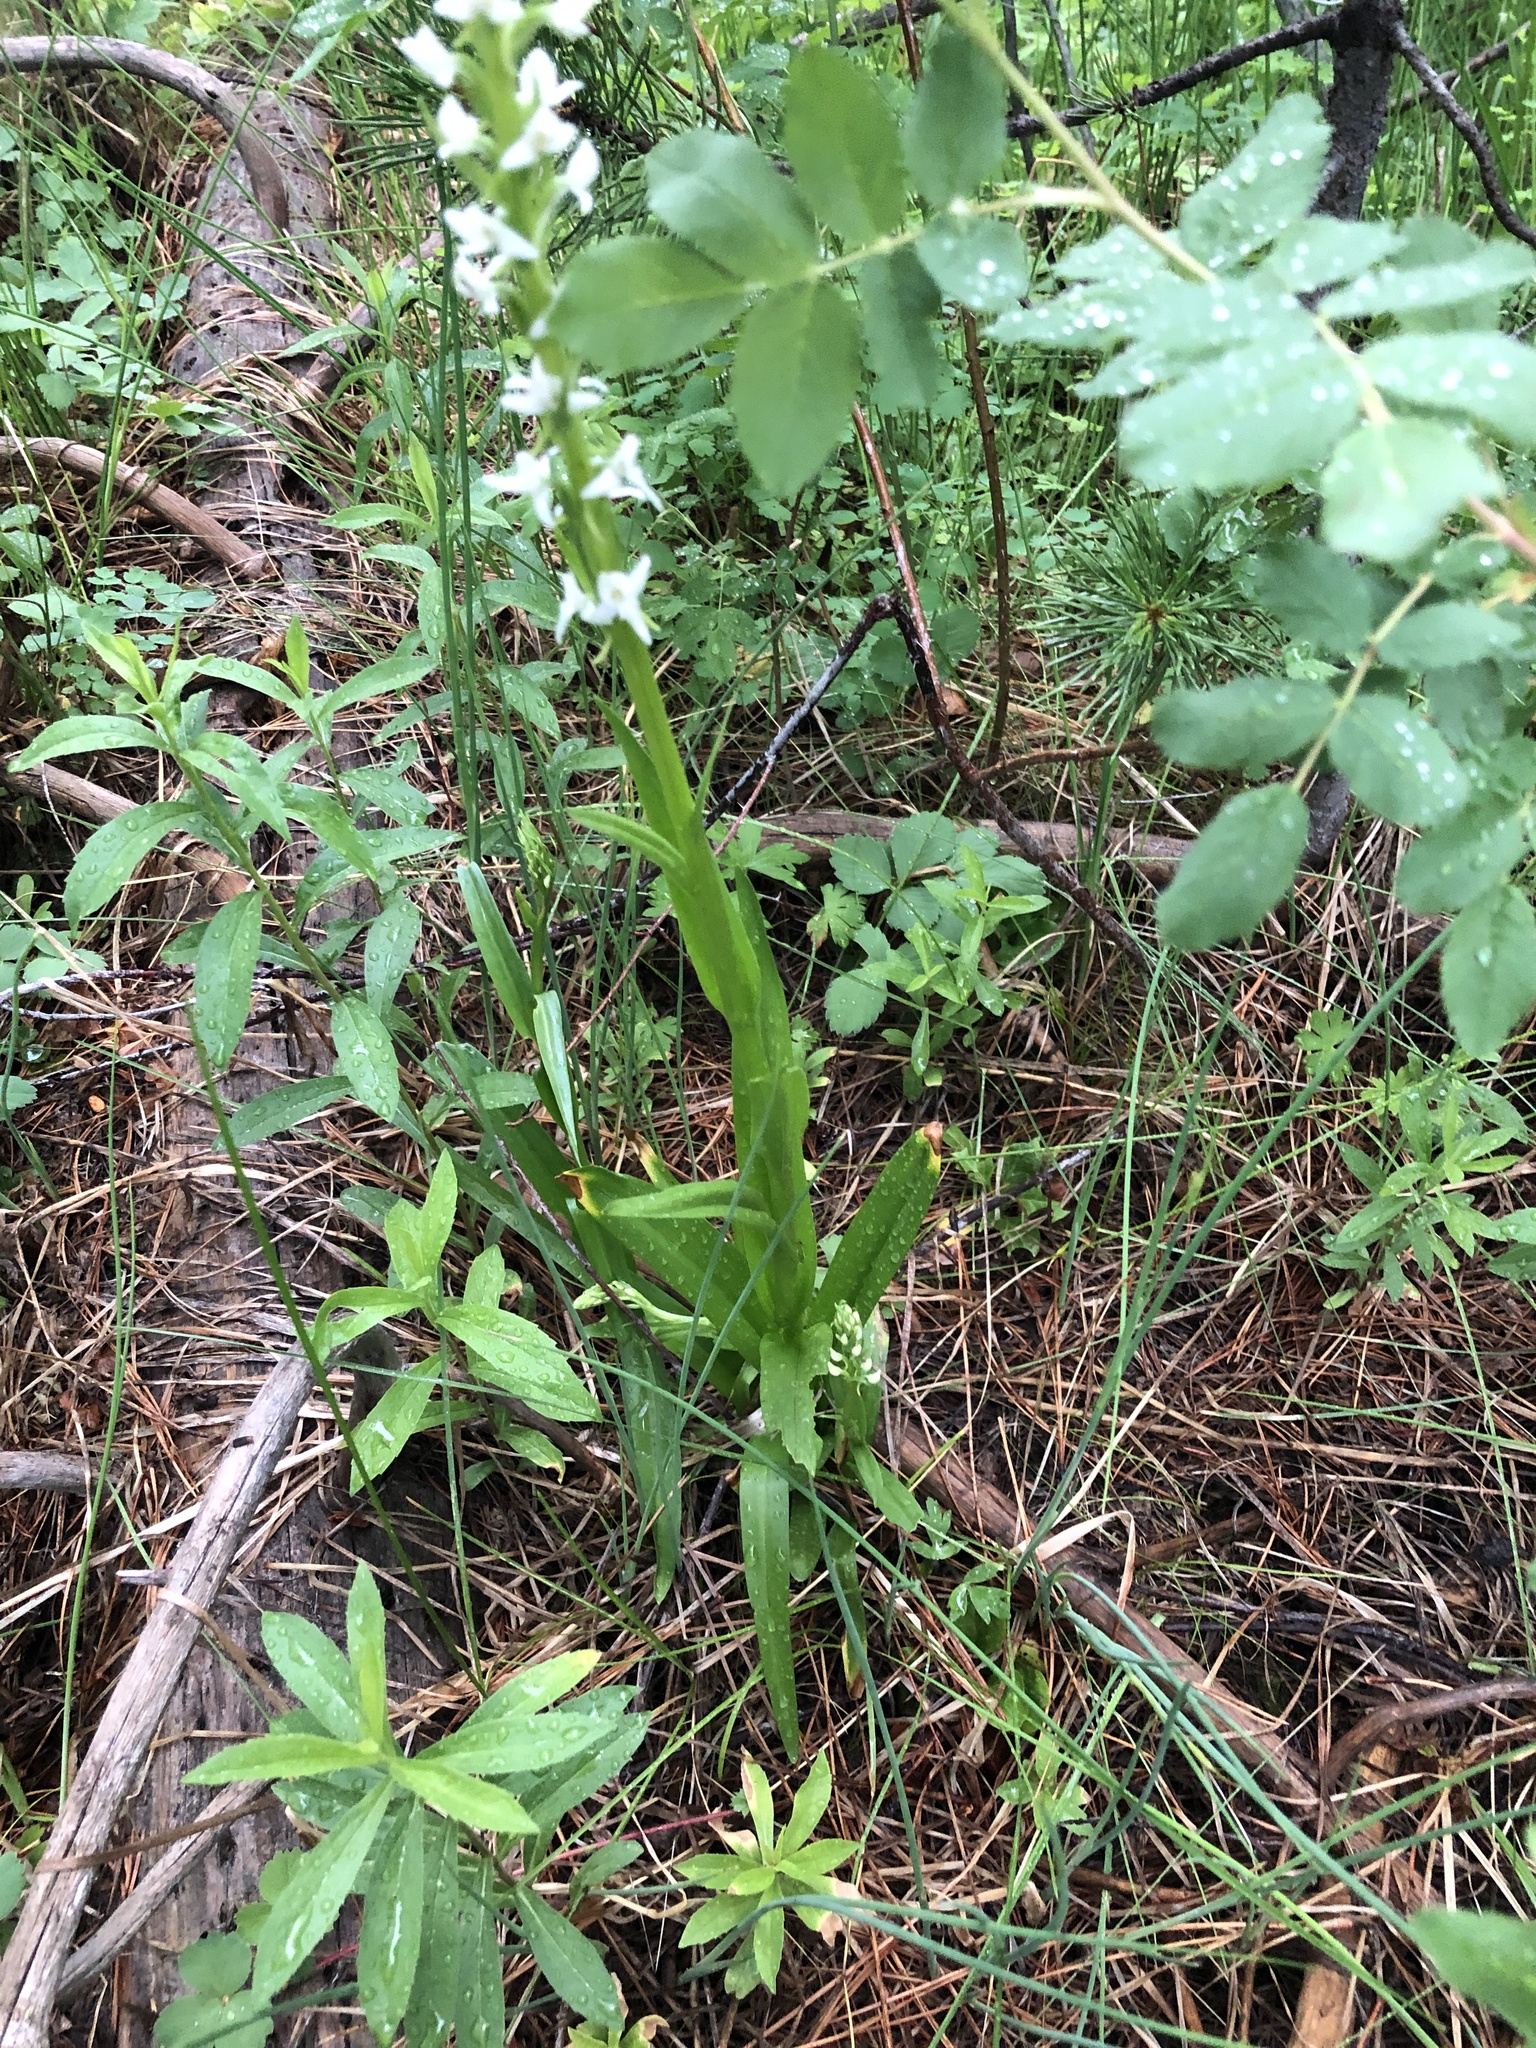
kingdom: Plantae
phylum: Tracheophyta
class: Liliopsida
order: Asparagales
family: Orchidaceae
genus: Platanthera
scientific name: Platanthera dilatata
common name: Bog candles
